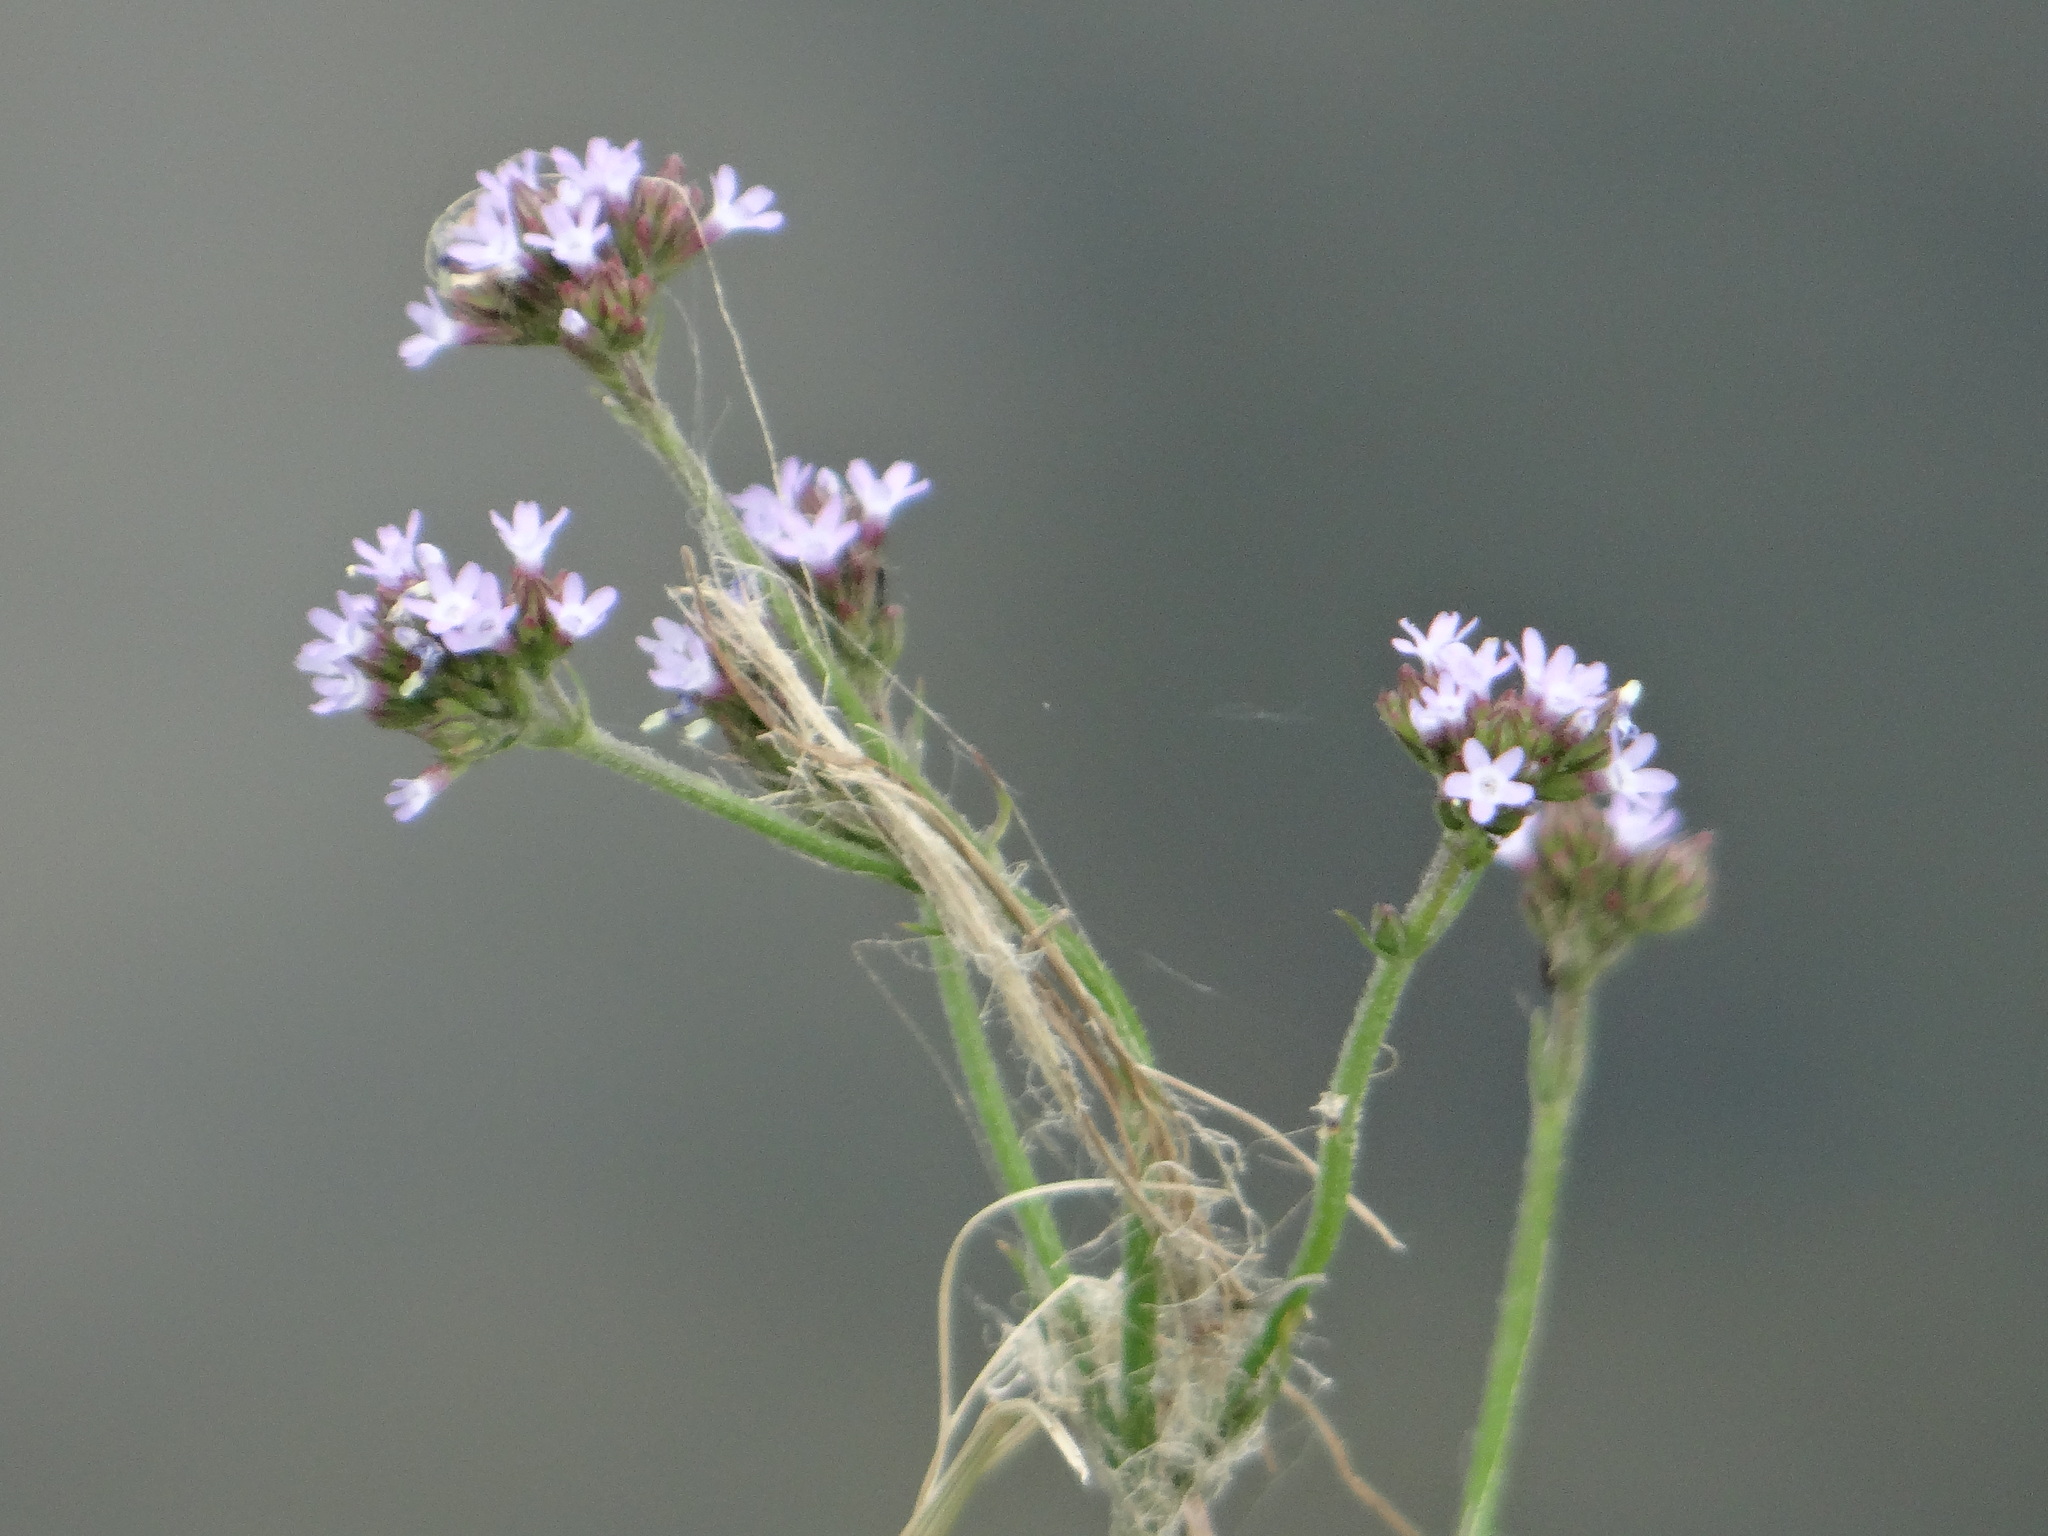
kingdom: Plantae
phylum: Tracheophyta
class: Magnoliopsida
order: Lamiales
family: Verbenaceae
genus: Verbena
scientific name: Verbena brasiliensis
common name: Brazilian vervain
